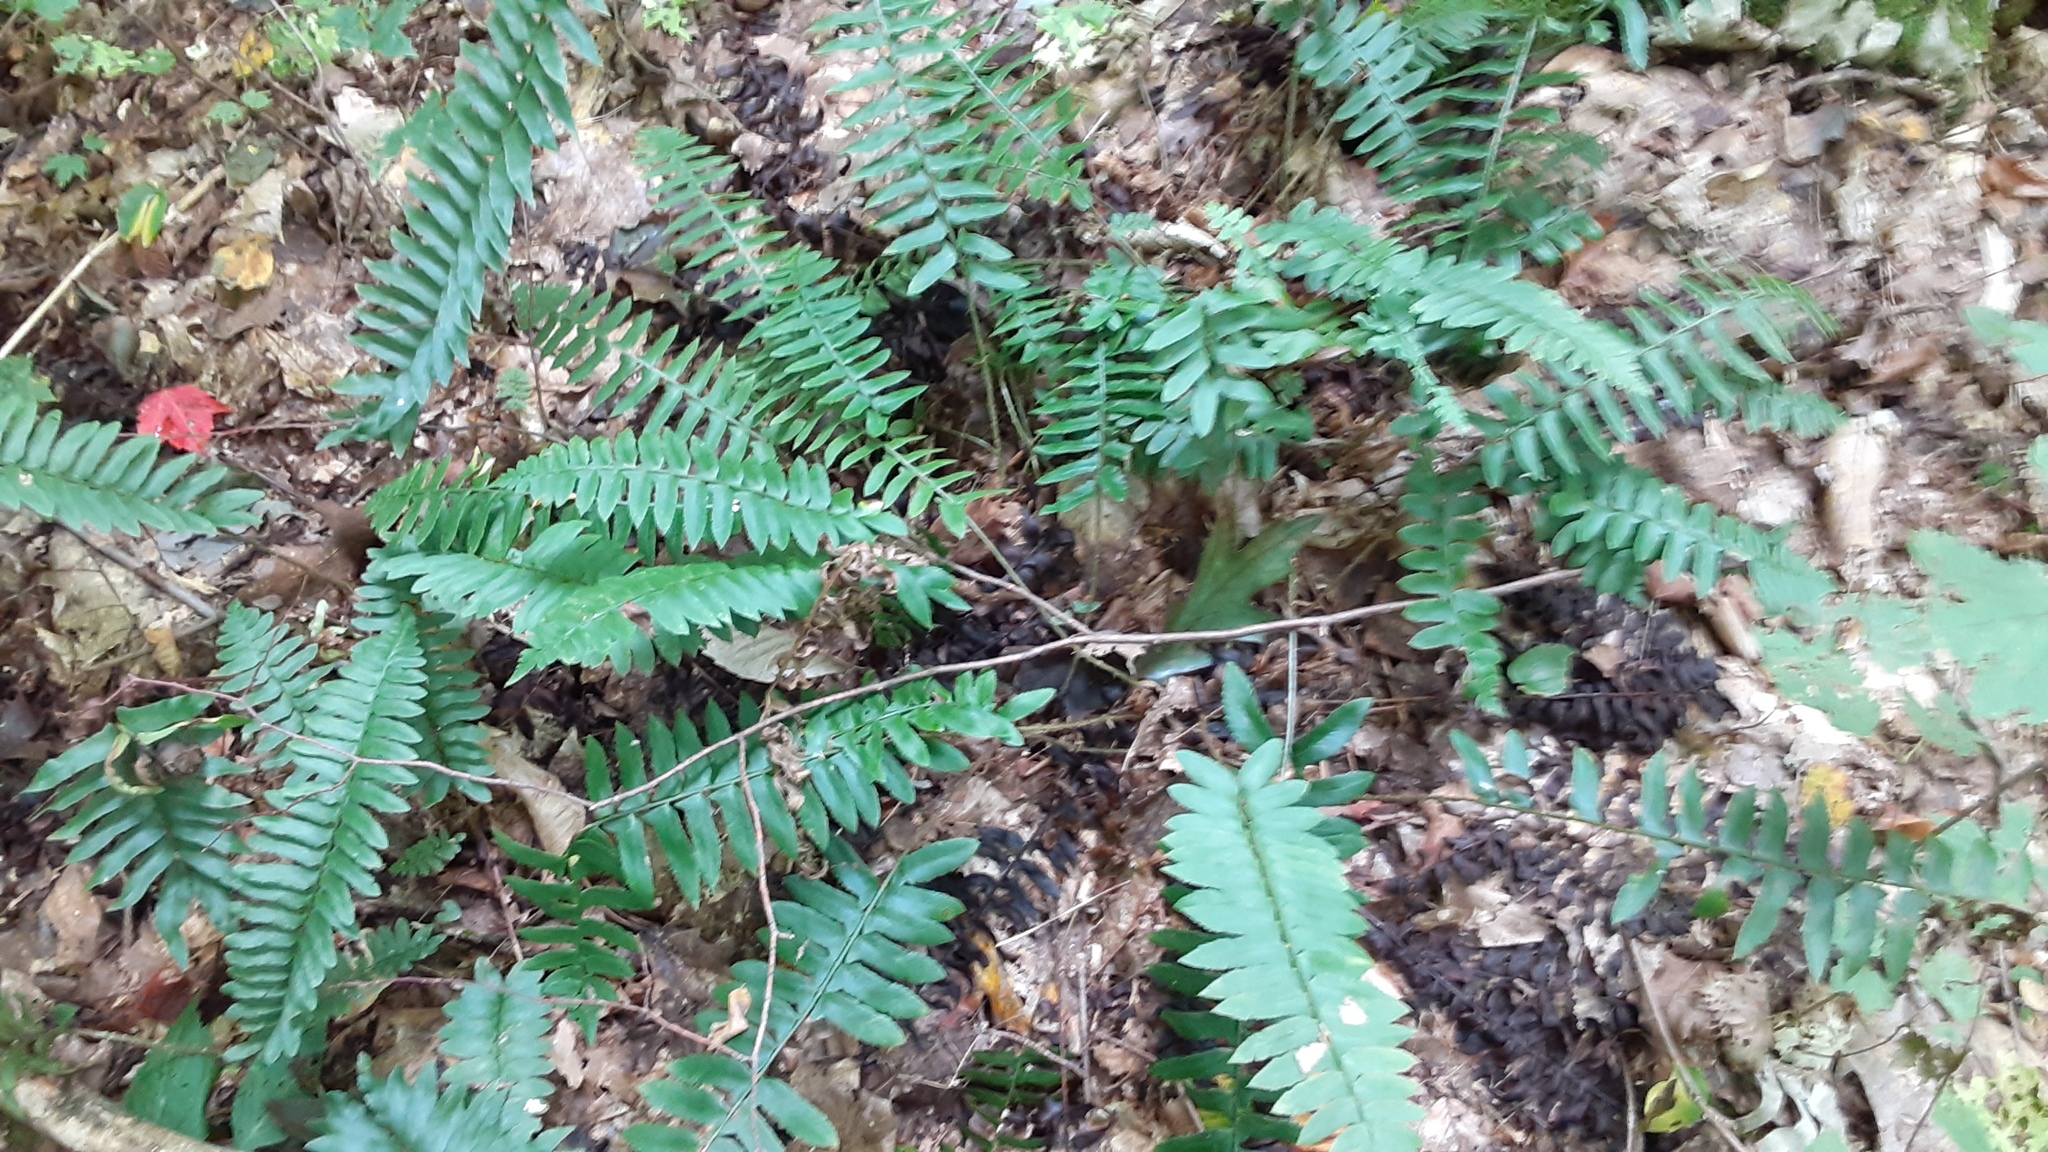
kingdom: Plantae
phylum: Tracheophyta
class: Polypodiopsida
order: Polypodiales
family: Dryopteridaceae
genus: Polystichum
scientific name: Polystichum acrostichoides
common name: Christmas fern
